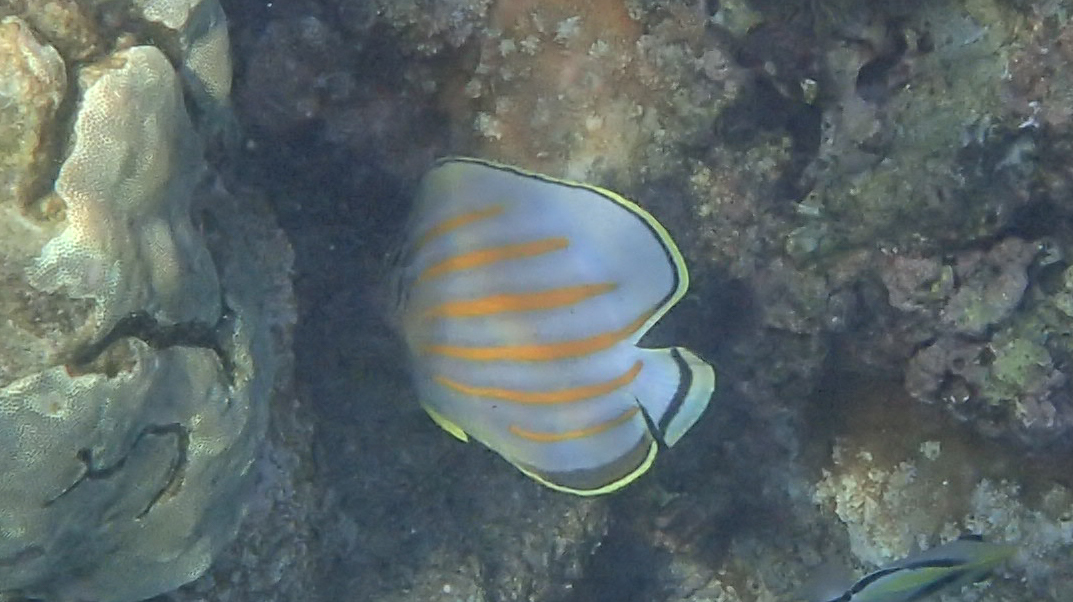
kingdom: Animalia
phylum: Chordata
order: Perciformes
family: Chaetodontidae
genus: Chaetodon
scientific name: Chaetodon ornatissimus
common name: Ornate butterflyfish
